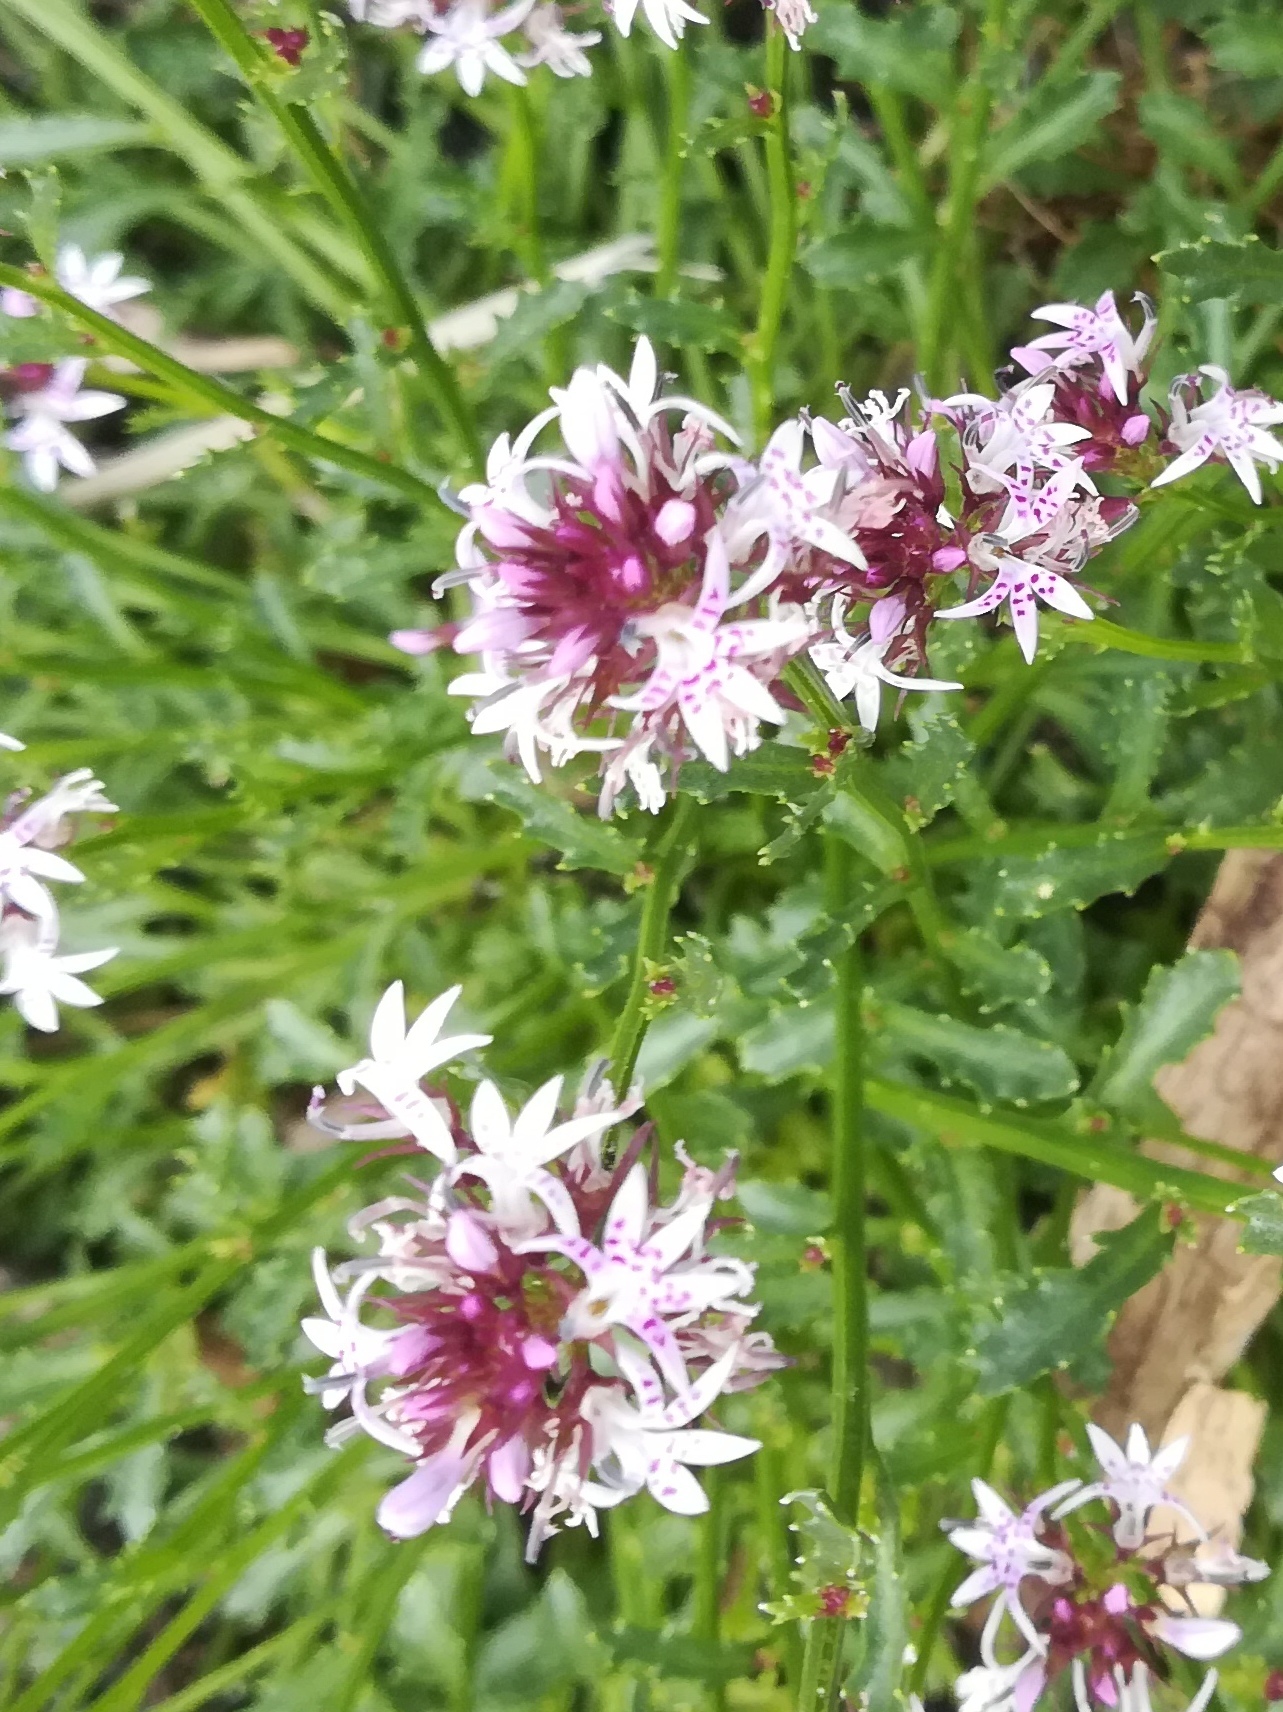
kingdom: Plantae
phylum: Tracheophyta
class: Magnoliopsida
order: Asterales
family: Campanulaceae
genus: Lobelia
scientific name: Lobelia jasionoides
